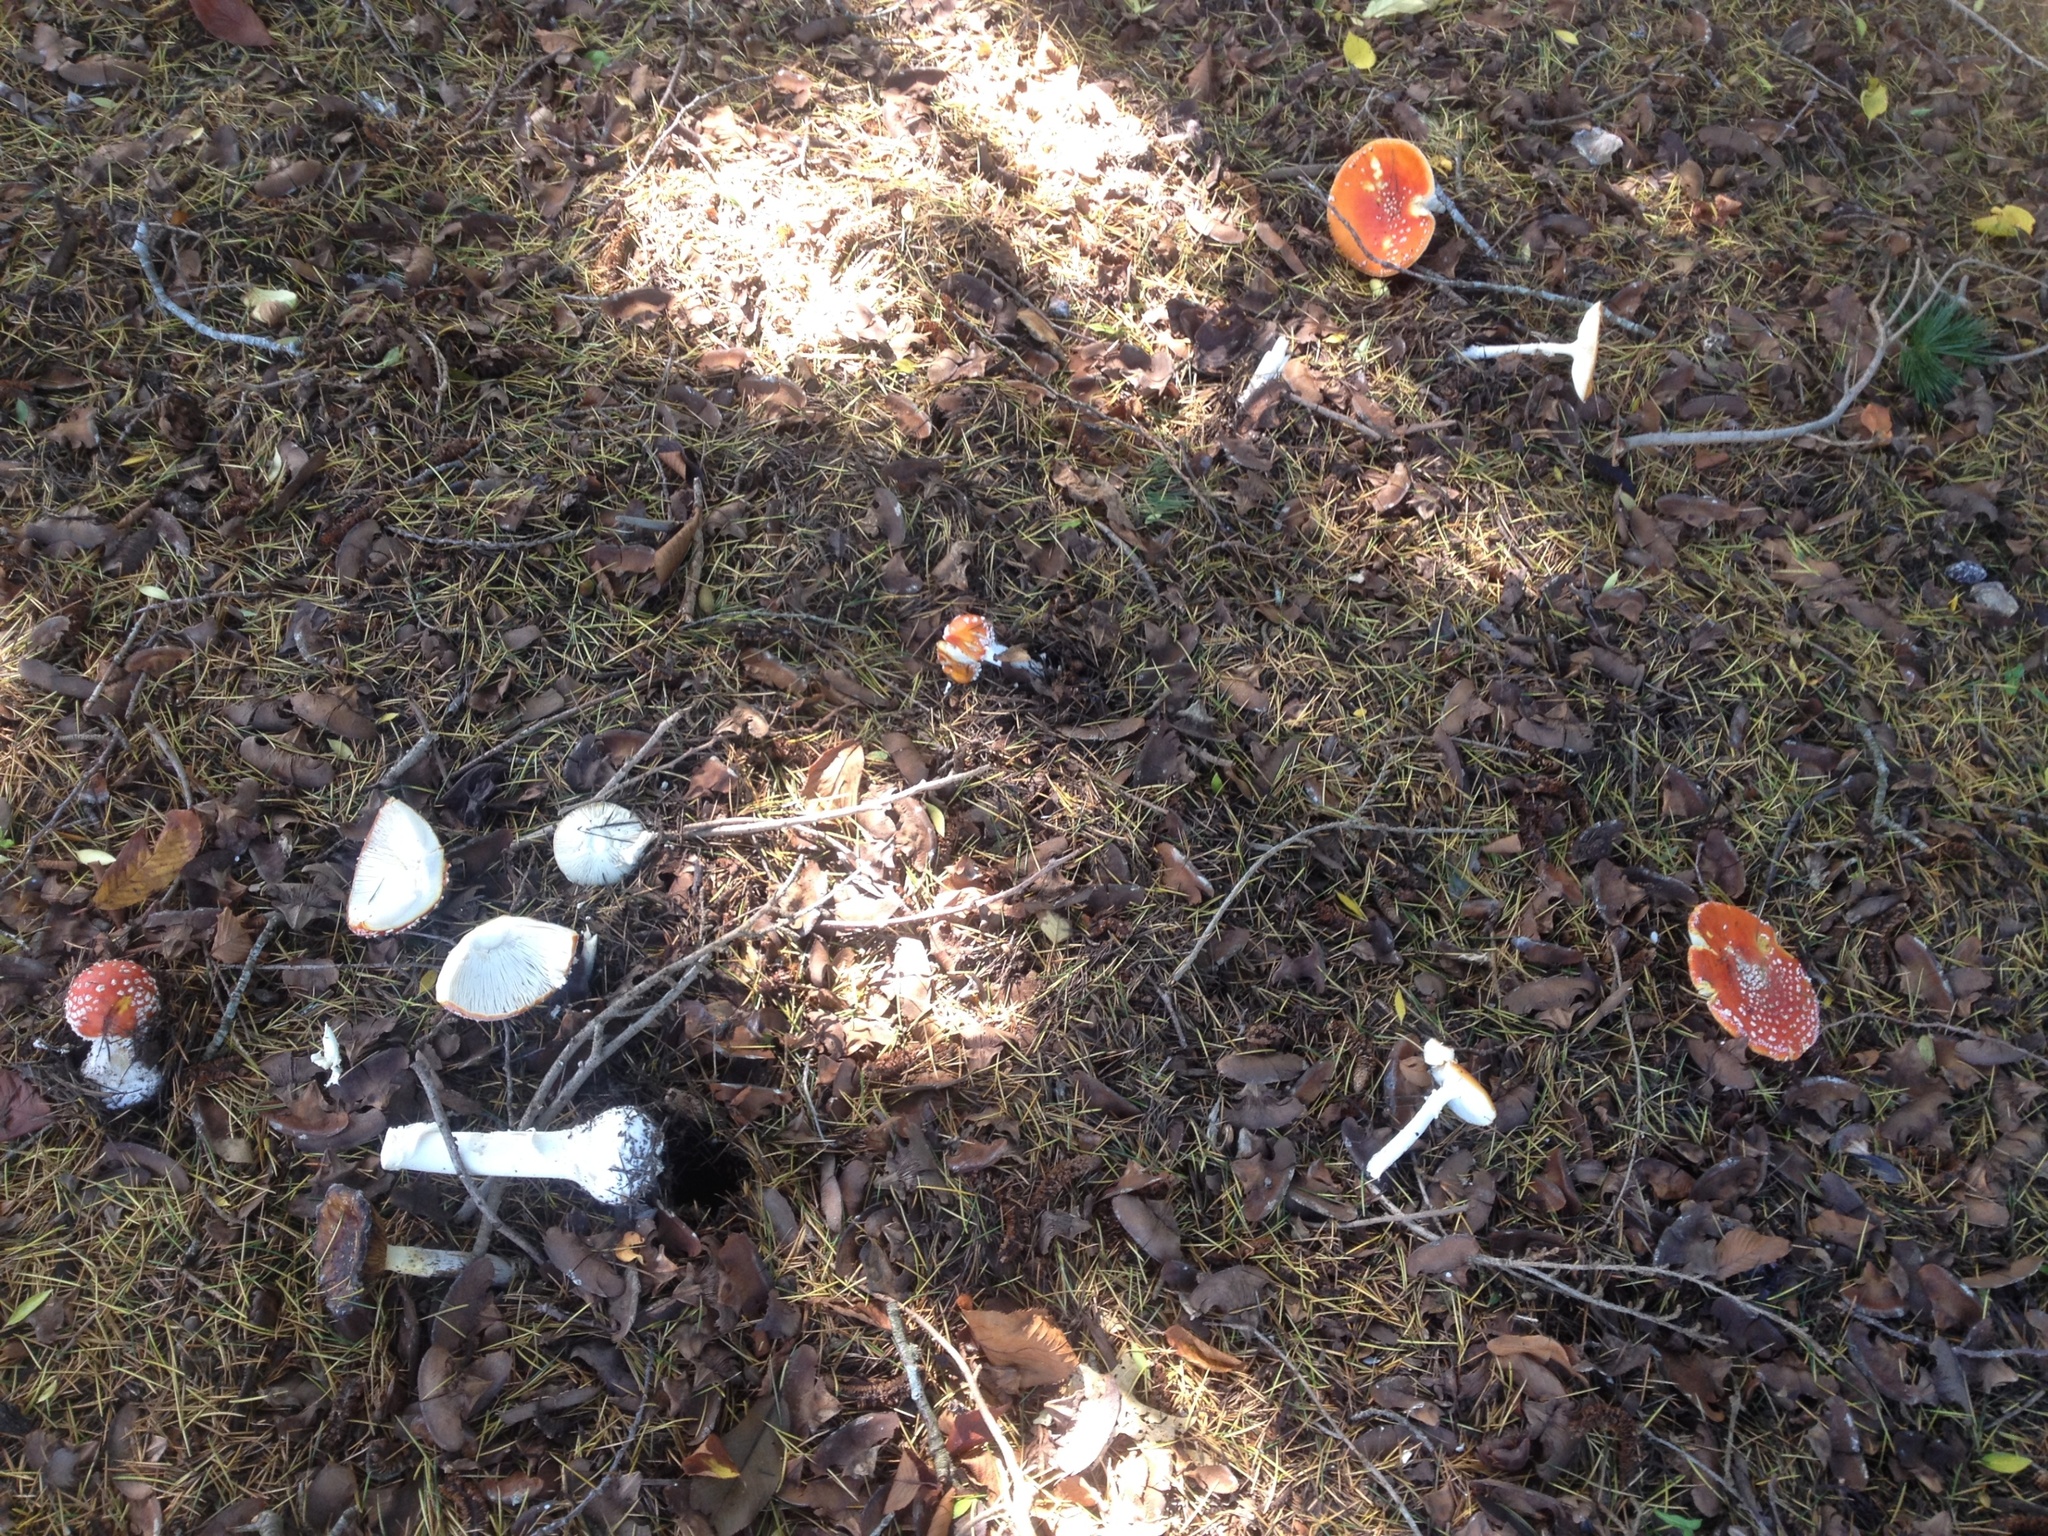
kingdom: Fungi
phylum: Basidiomycota
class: Agaricomycetes
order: Agaricales
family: Amanitaceae
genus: Amanita
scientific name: Amanita muscaria
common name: Fly agaric
